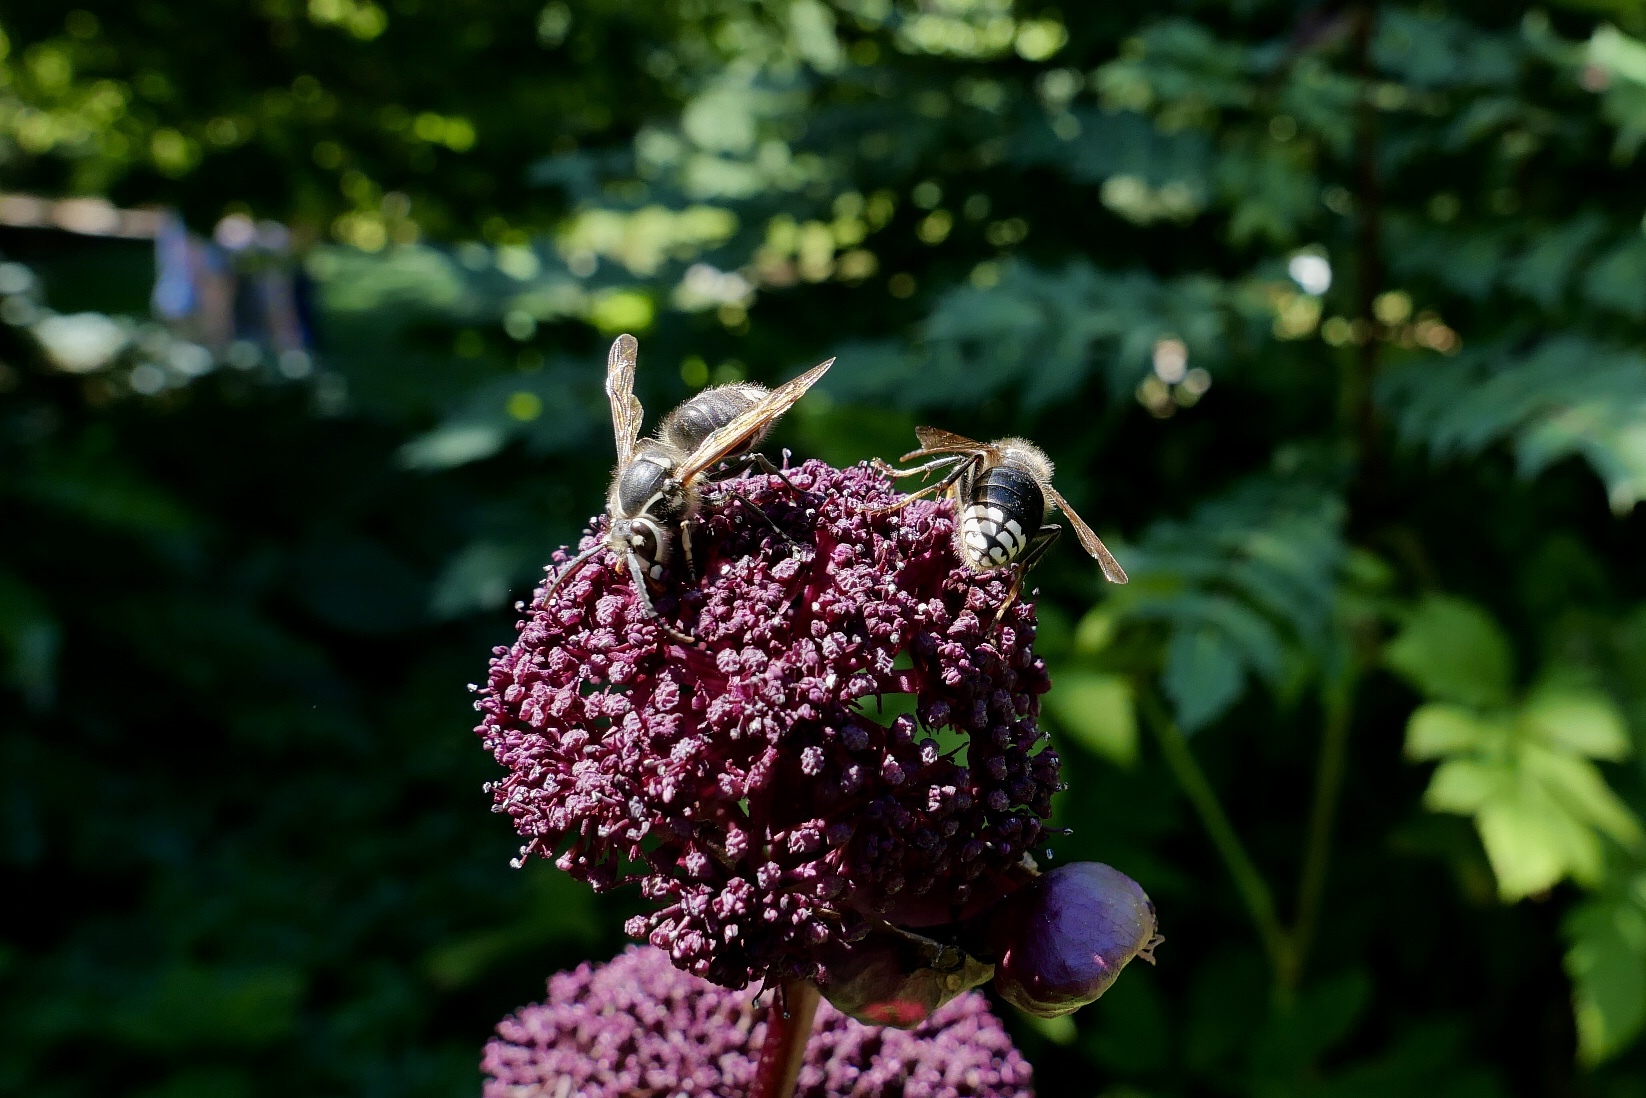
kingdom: Animalia
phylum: Arthropoda
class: Insecta
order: Hymenoptera
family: Vespidae
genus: Dolichovespula
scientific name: Dolichovespula maculata
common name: Bald-faced hornet
